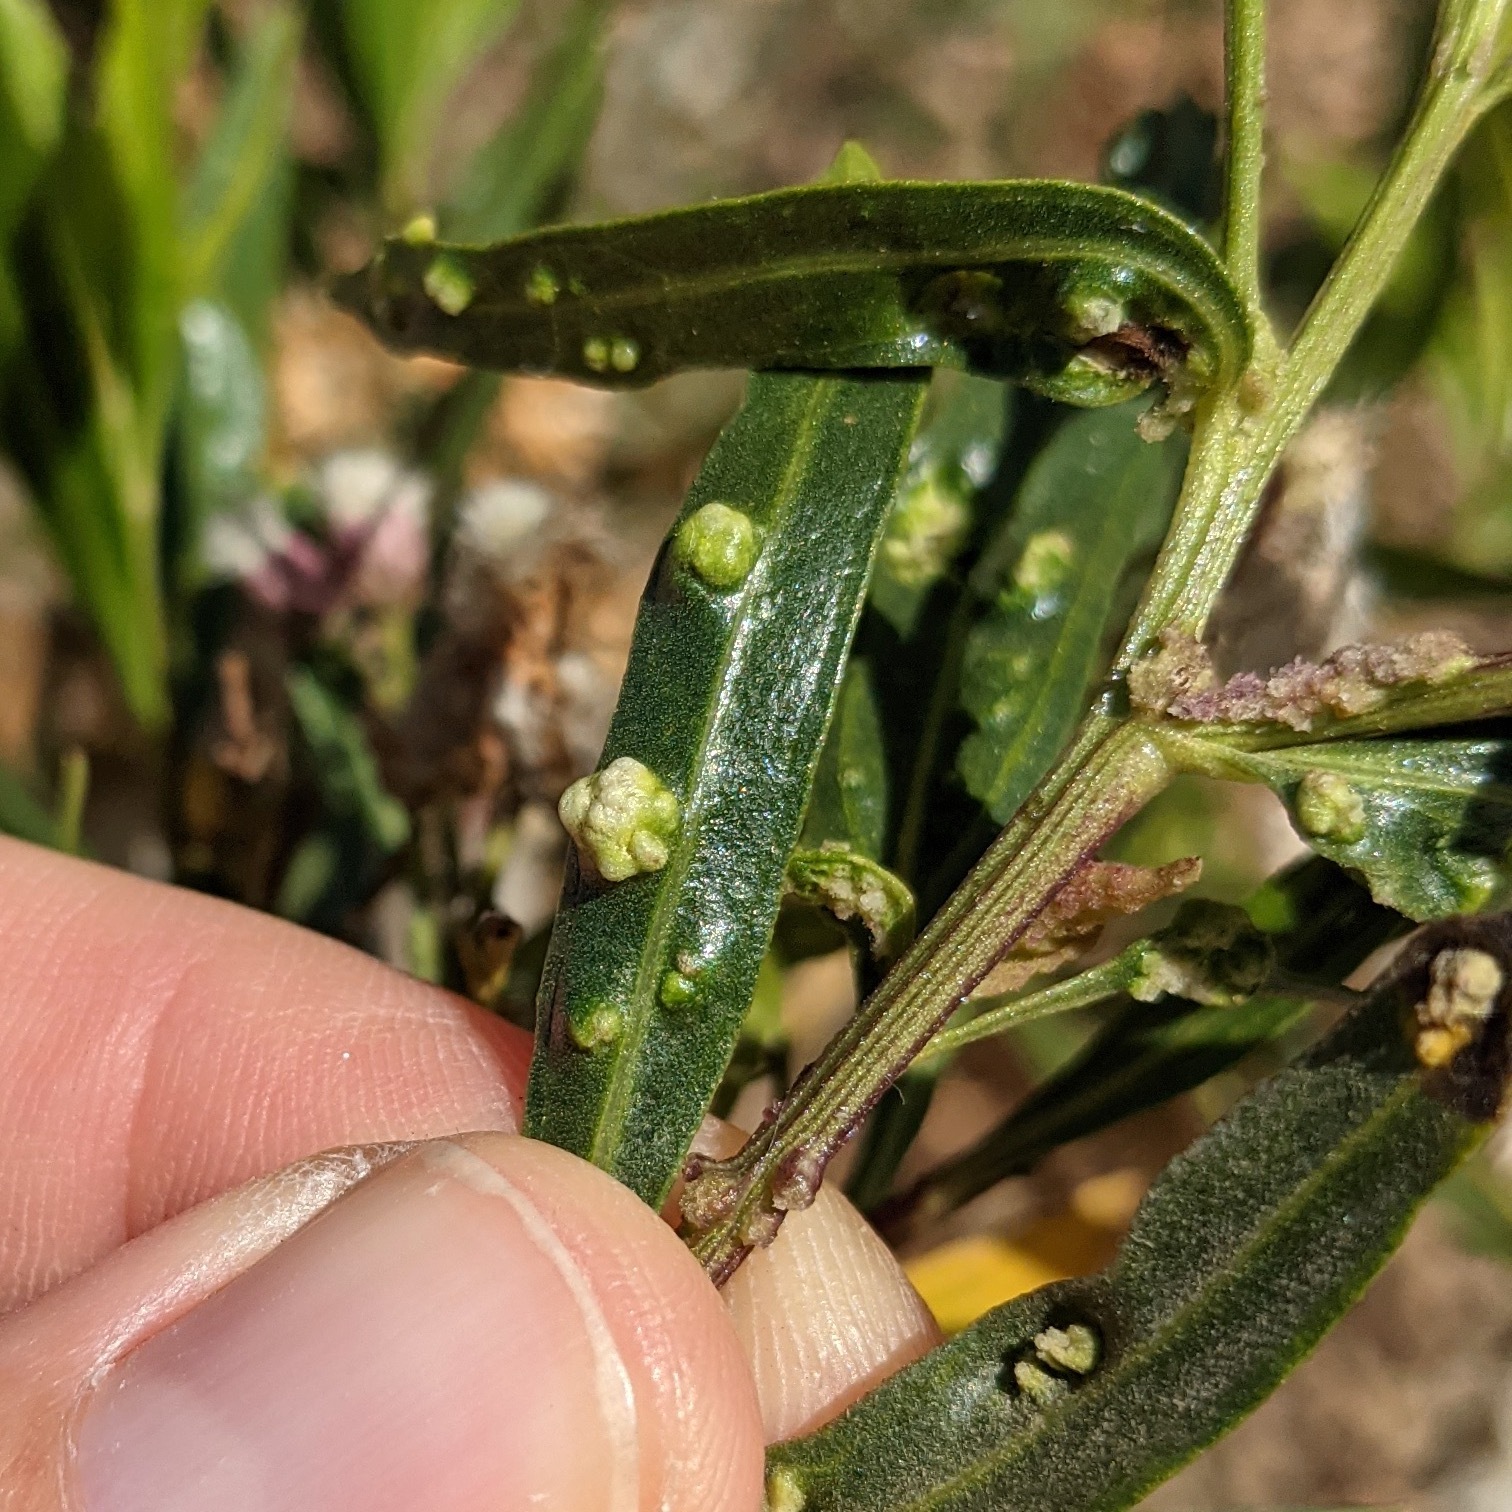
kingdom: Animalia
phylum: Arthropoda
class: Arachnida
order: Trombidiformes
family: Eriophyidae
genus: Aceria
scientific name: Aceria
